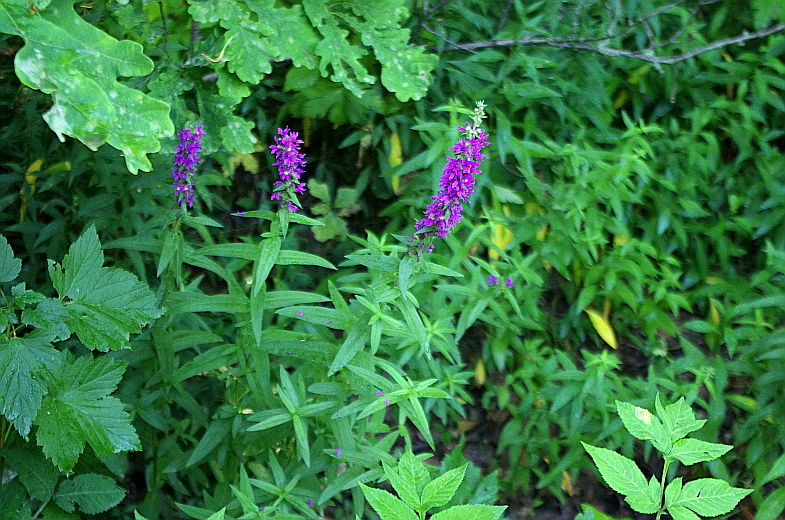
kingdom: Plantae
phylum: Tracheophyta
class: Magnoliopsida
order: Myrtales
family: Lythraceae
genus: Lythrum
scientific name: Lythrum salicaria
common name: Purple loosestrife
